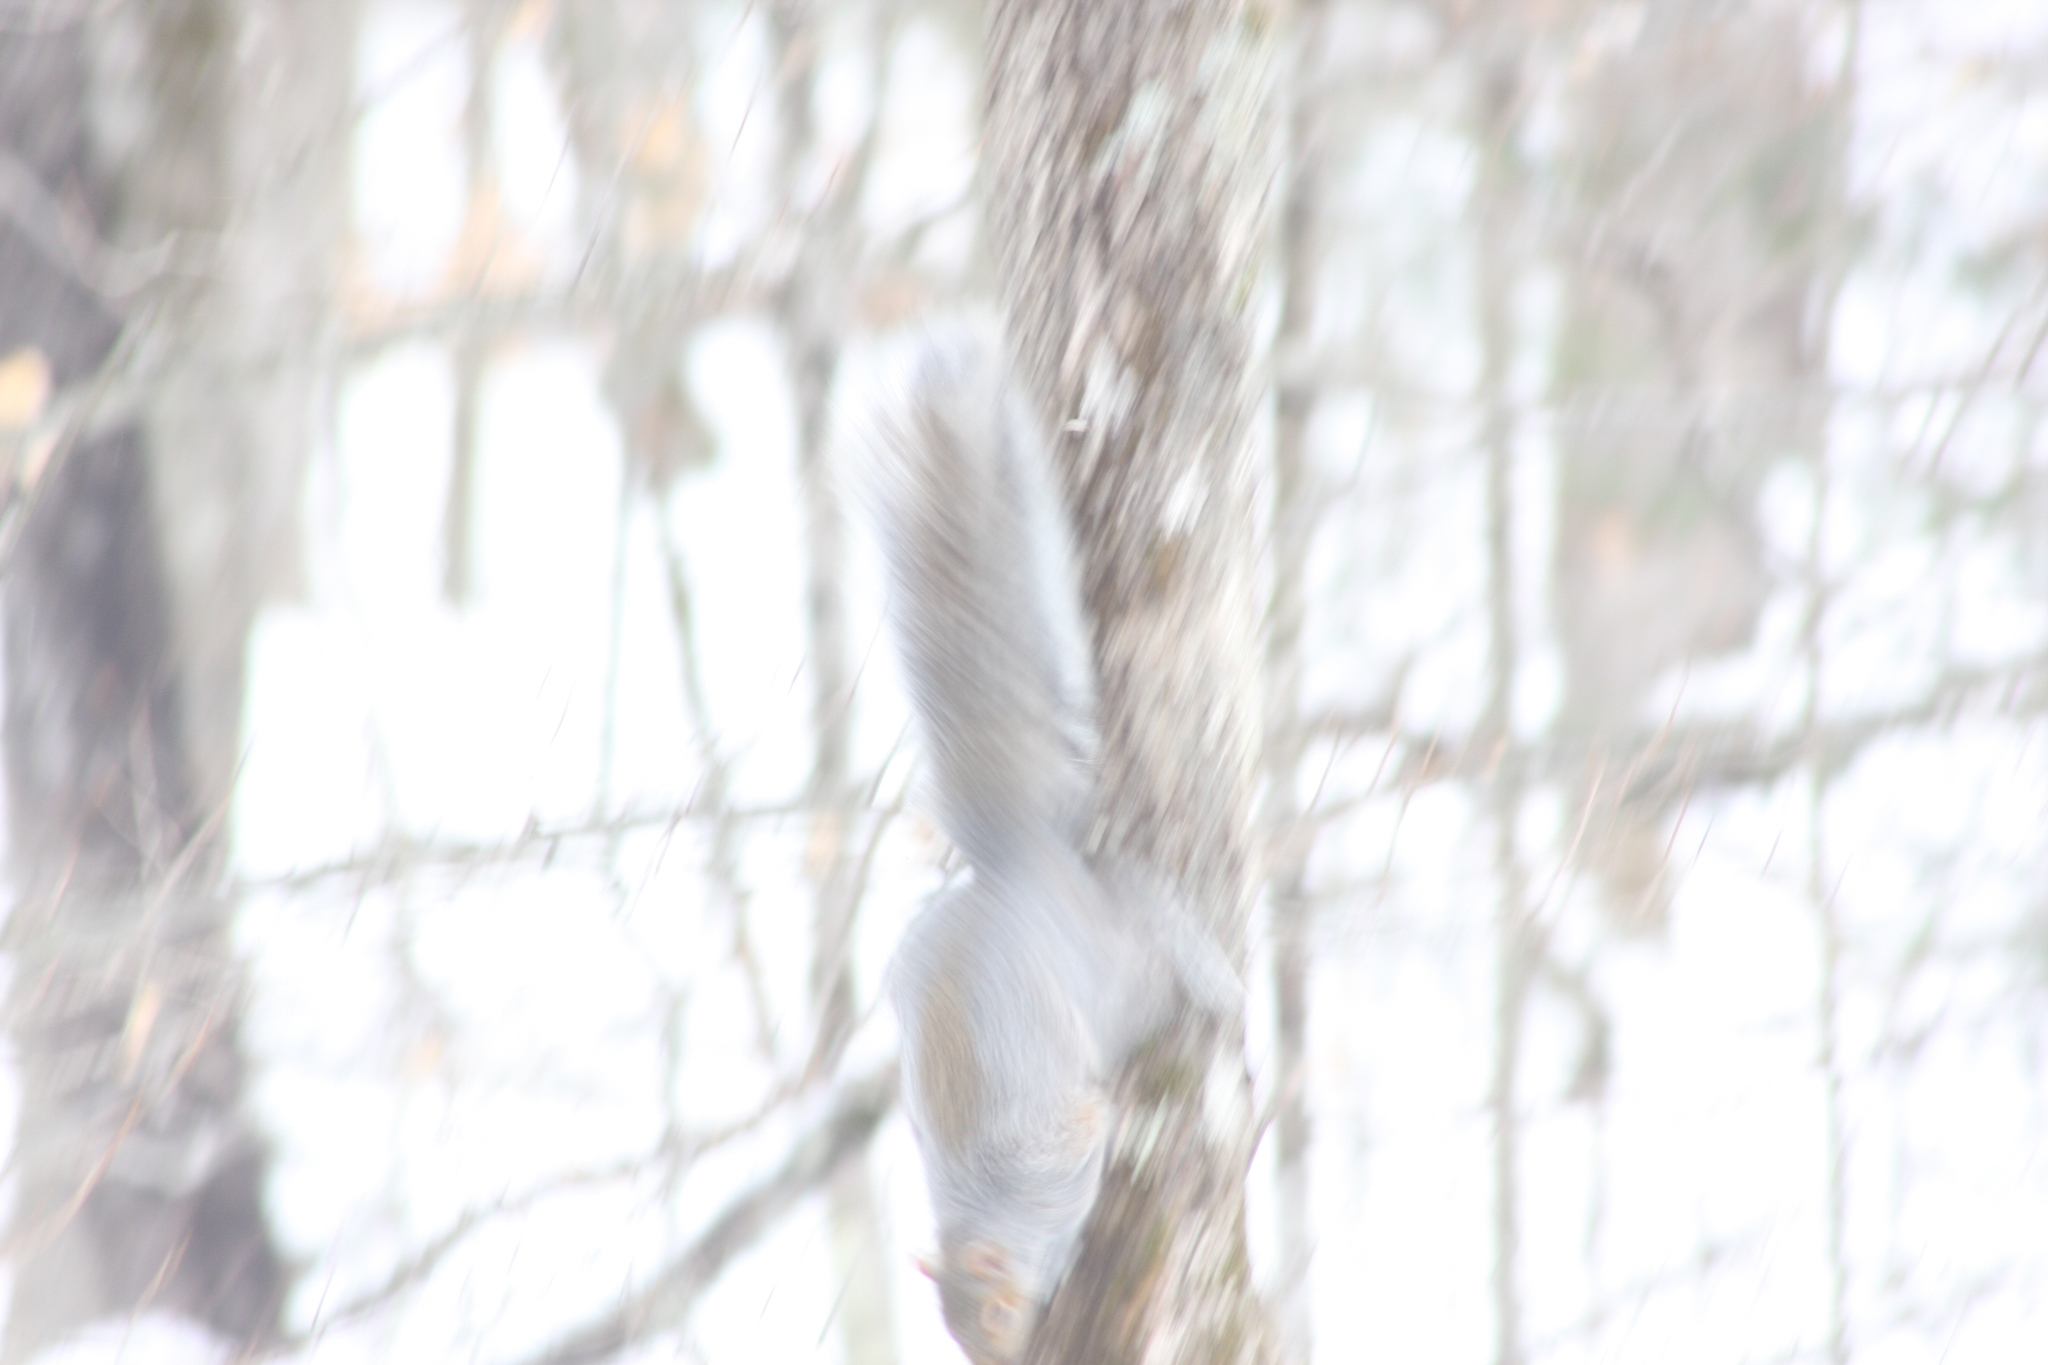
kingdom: Animalia
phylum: Chordata
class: Mammalia
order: Rodentia
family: Sciuridae
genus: Sciurus
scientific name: Sciurus carolinensis
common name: Eastern gray squirrel
